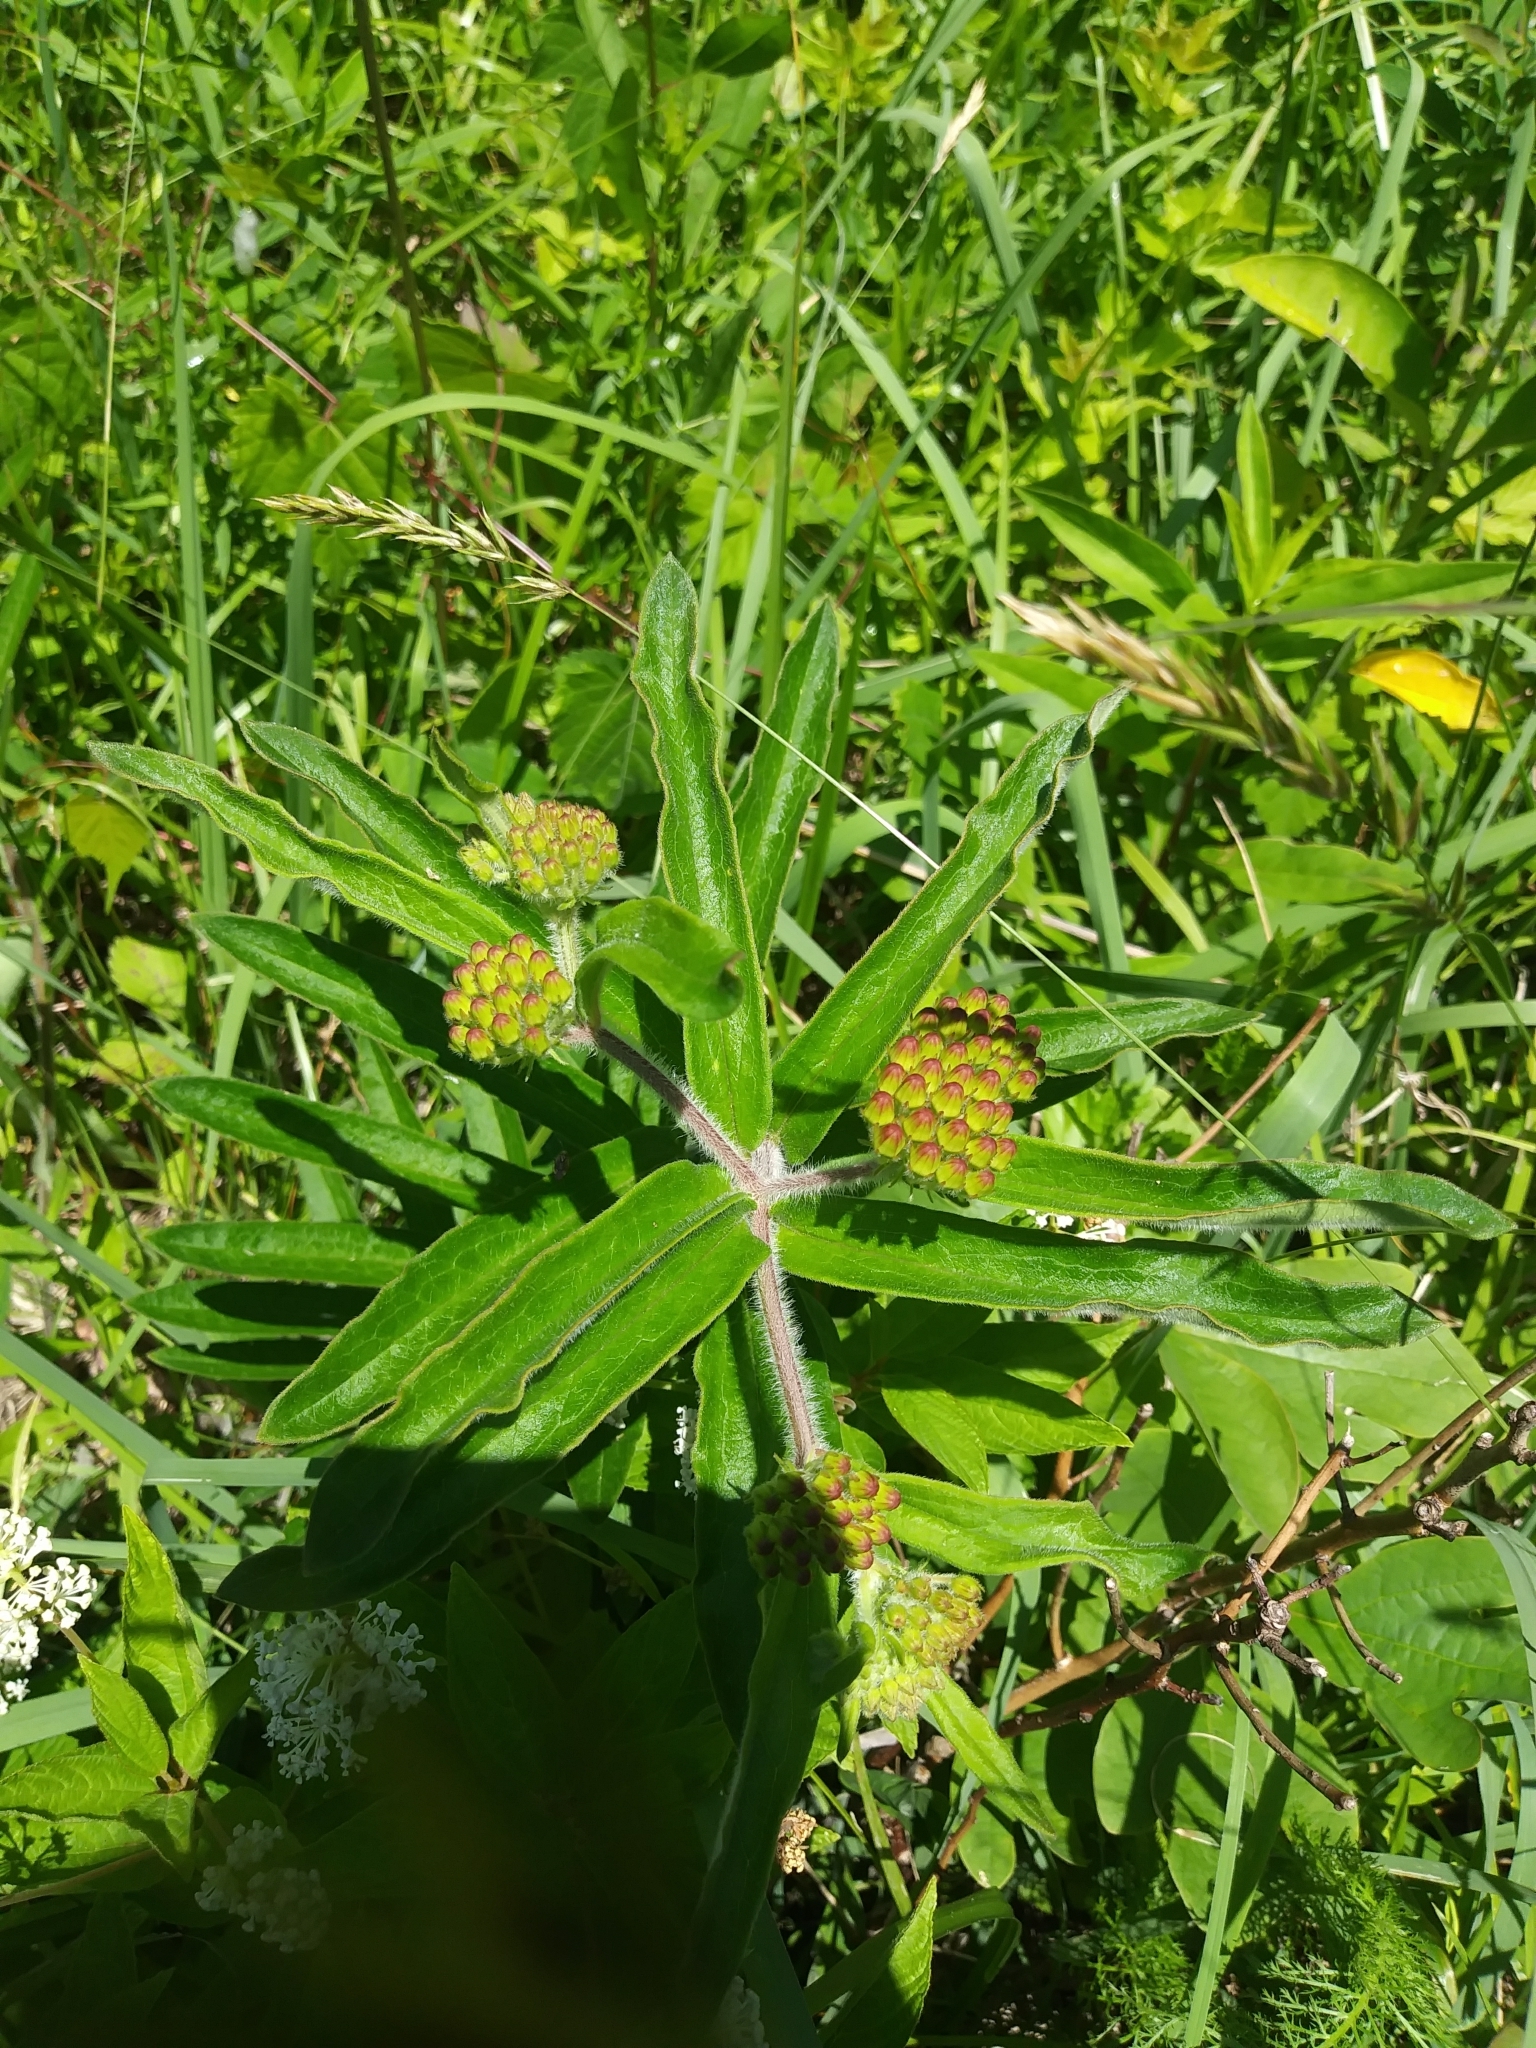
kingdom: Plantae
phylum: Tracheophyta
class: Magnoliopsida
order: Gentianales
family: Apocynaceae
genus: Asclepias
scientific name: Asclepias tuberosa
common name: Butterfly milkweed
